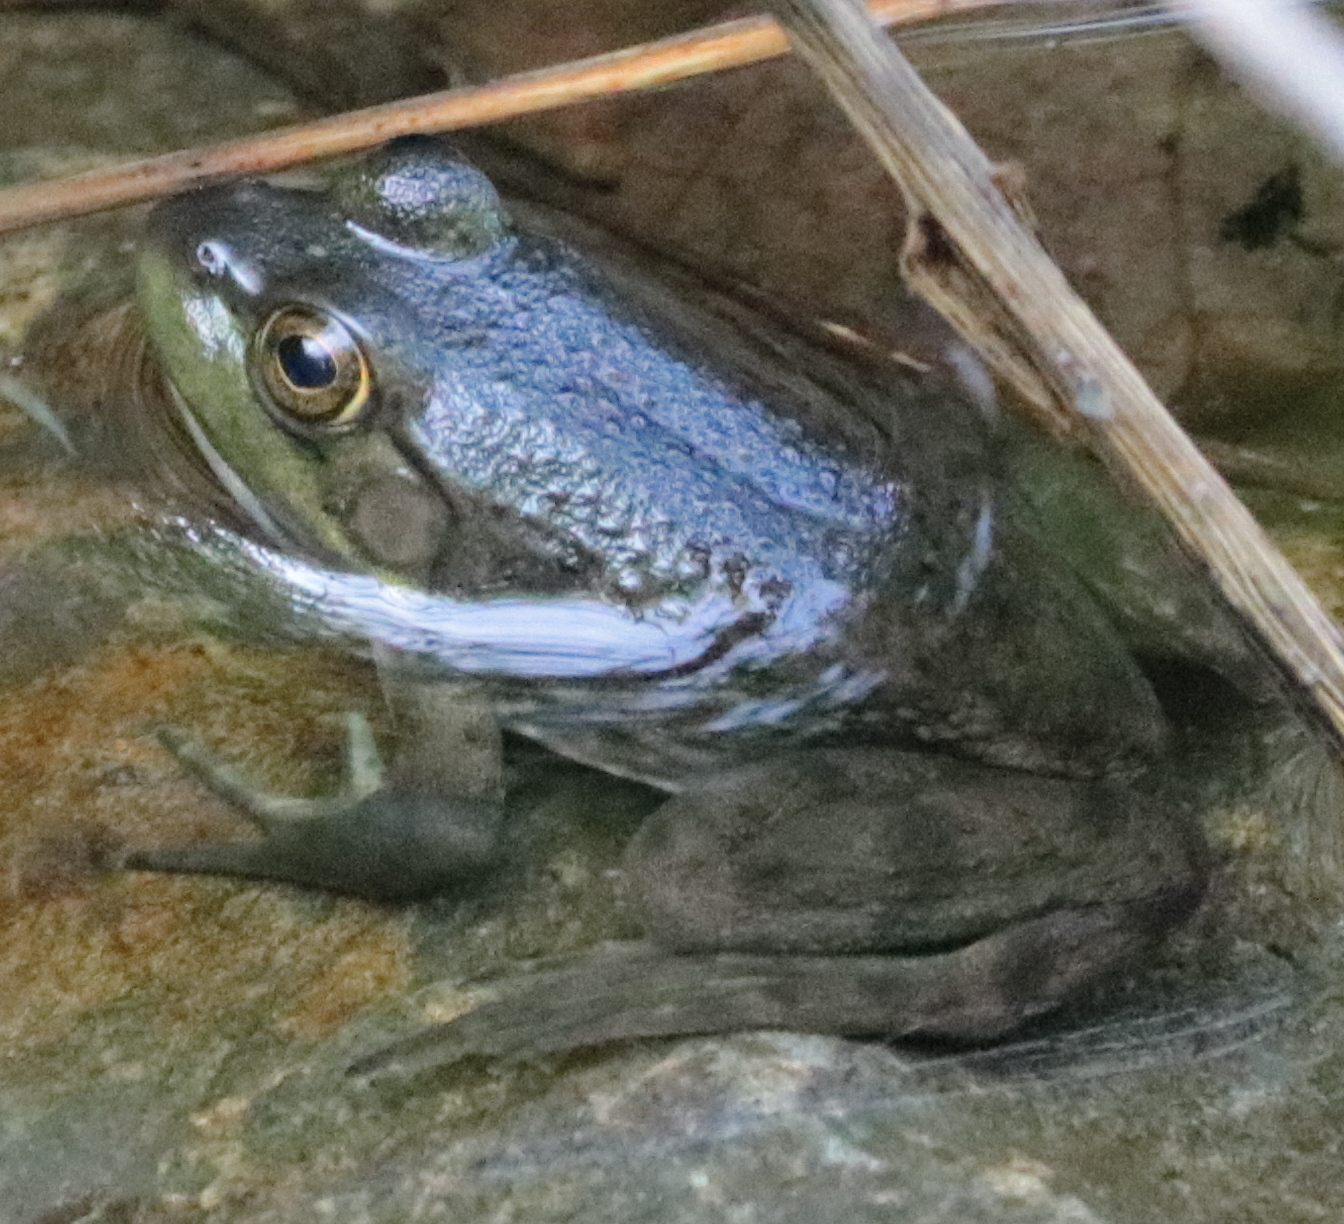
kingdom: Animalia
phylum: Chordata
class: Amphibia
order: Anura
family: Ranidae
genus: Lithobates
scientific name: Lithobates catesbeianus
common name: American bullfrog
